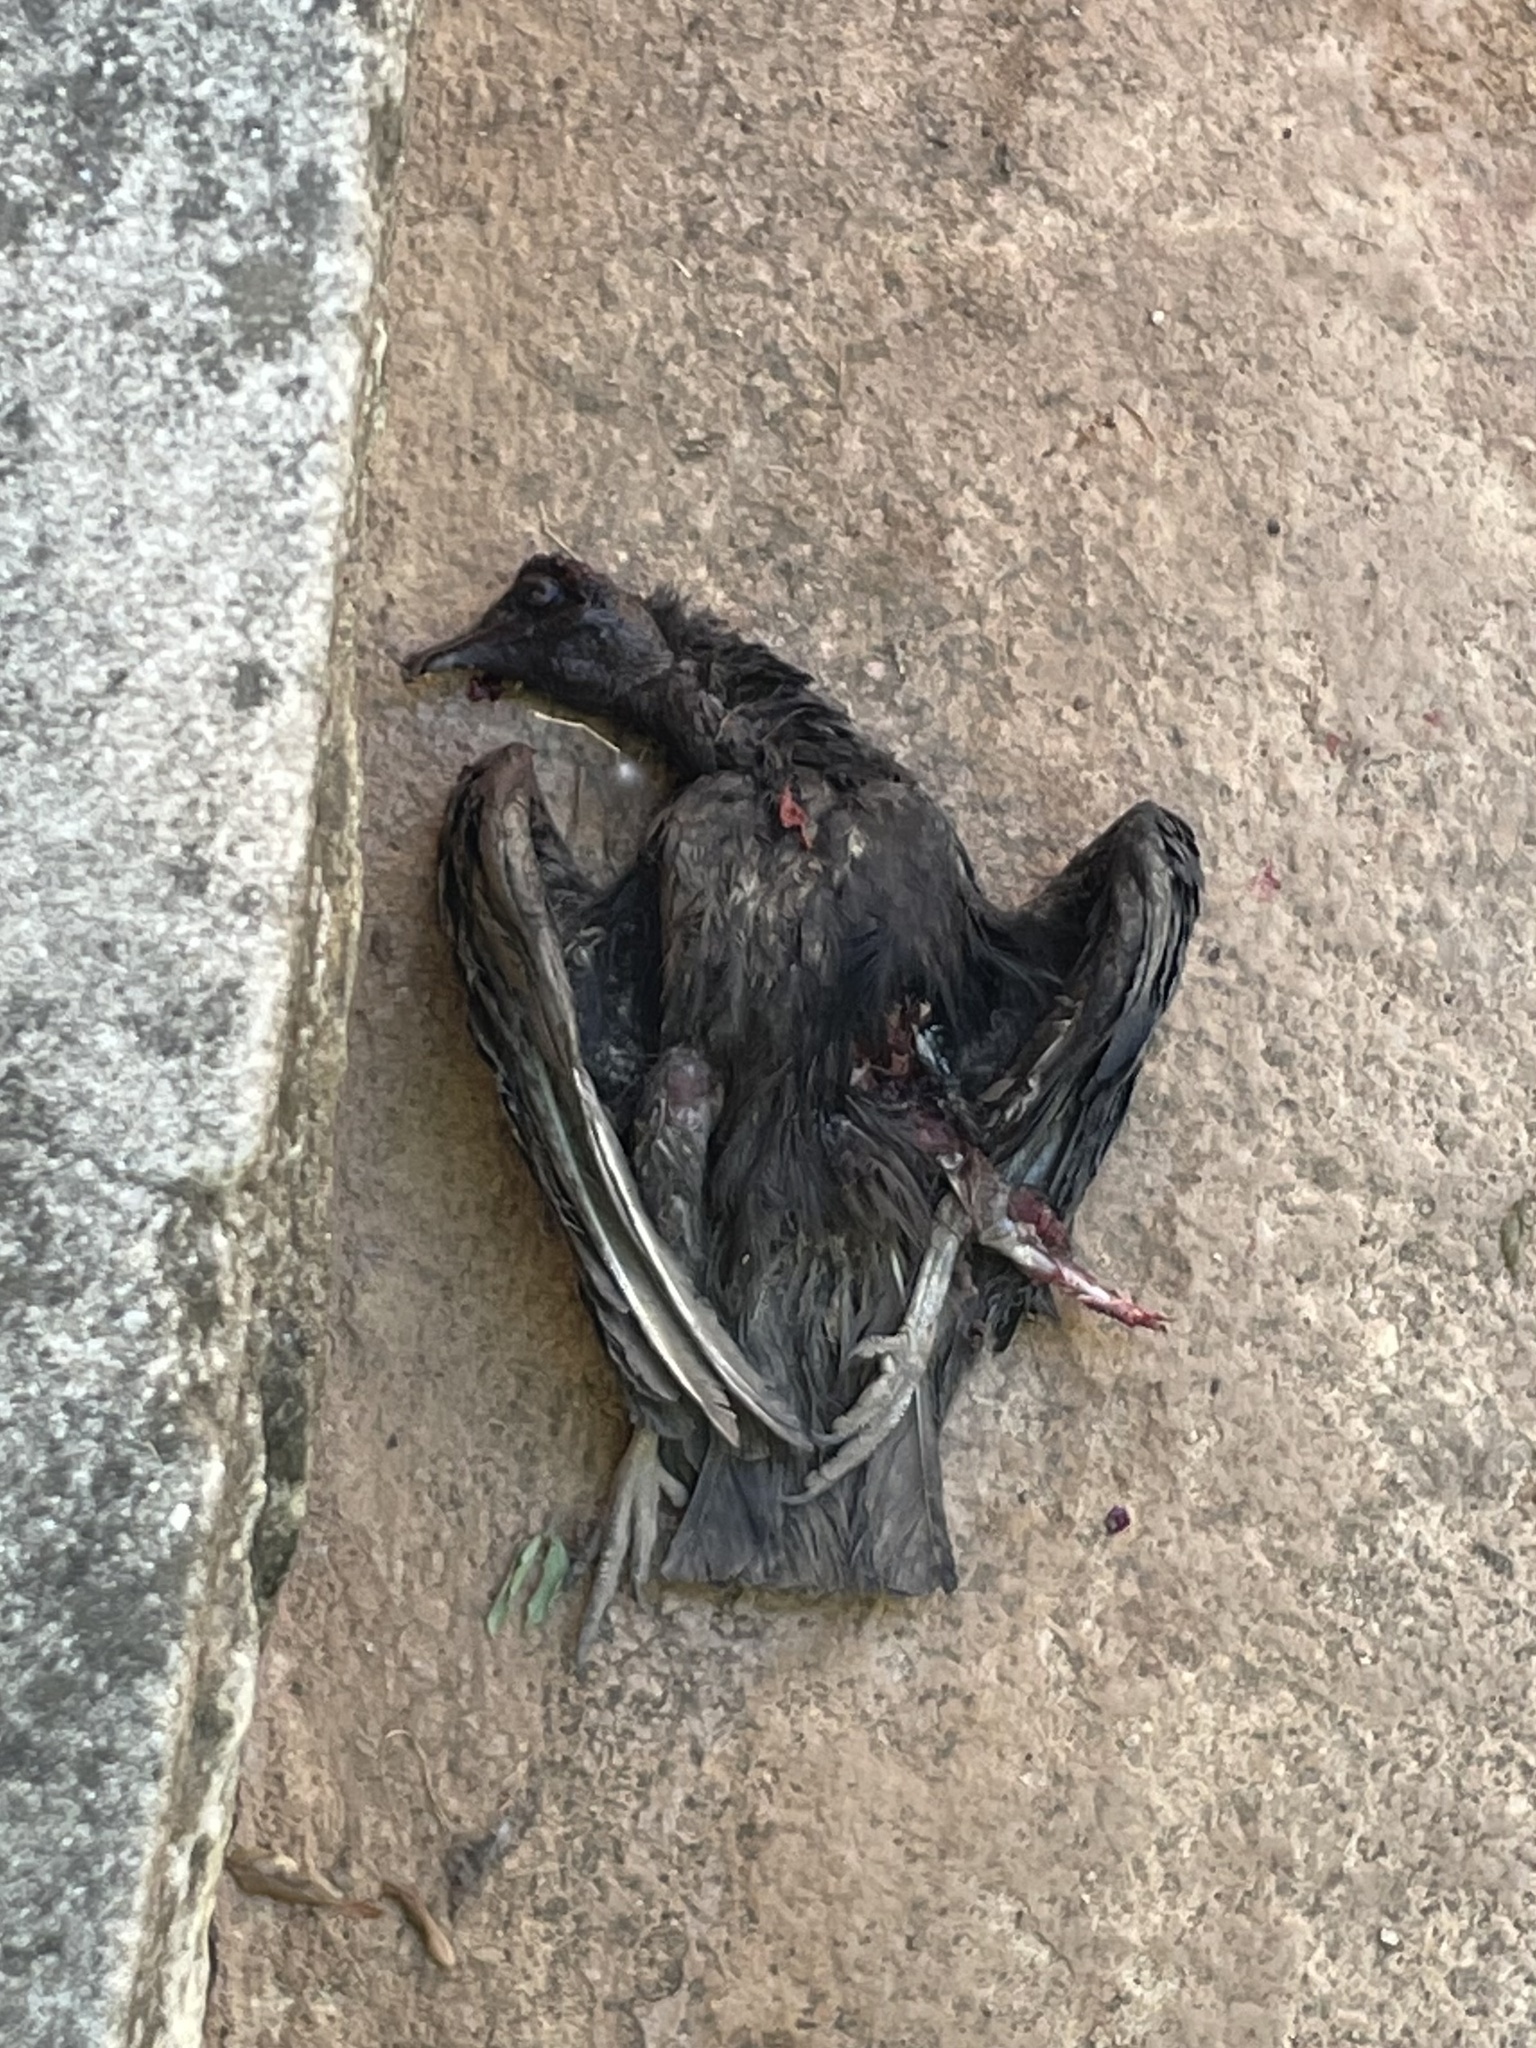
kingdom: Animalia
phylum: Chordata
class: Aves
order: Accipitriformes
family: Cathartidae
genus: Coragyps
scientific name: Coragyps atratus
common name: Black vulture
